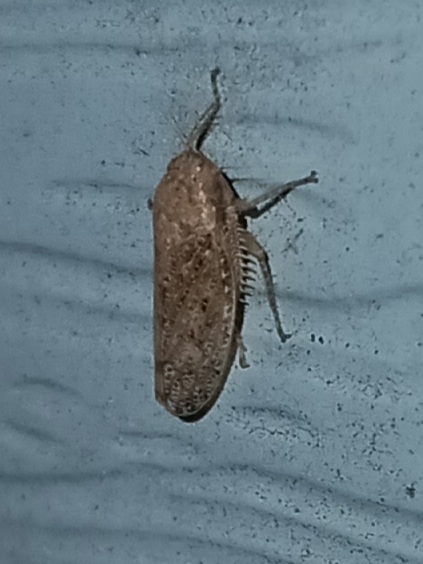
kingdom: Animalia
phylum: Arthropoda
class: Insecta
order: Hemiptera
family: Cicadellidae
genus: Curtara
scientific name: Curtara insularis
